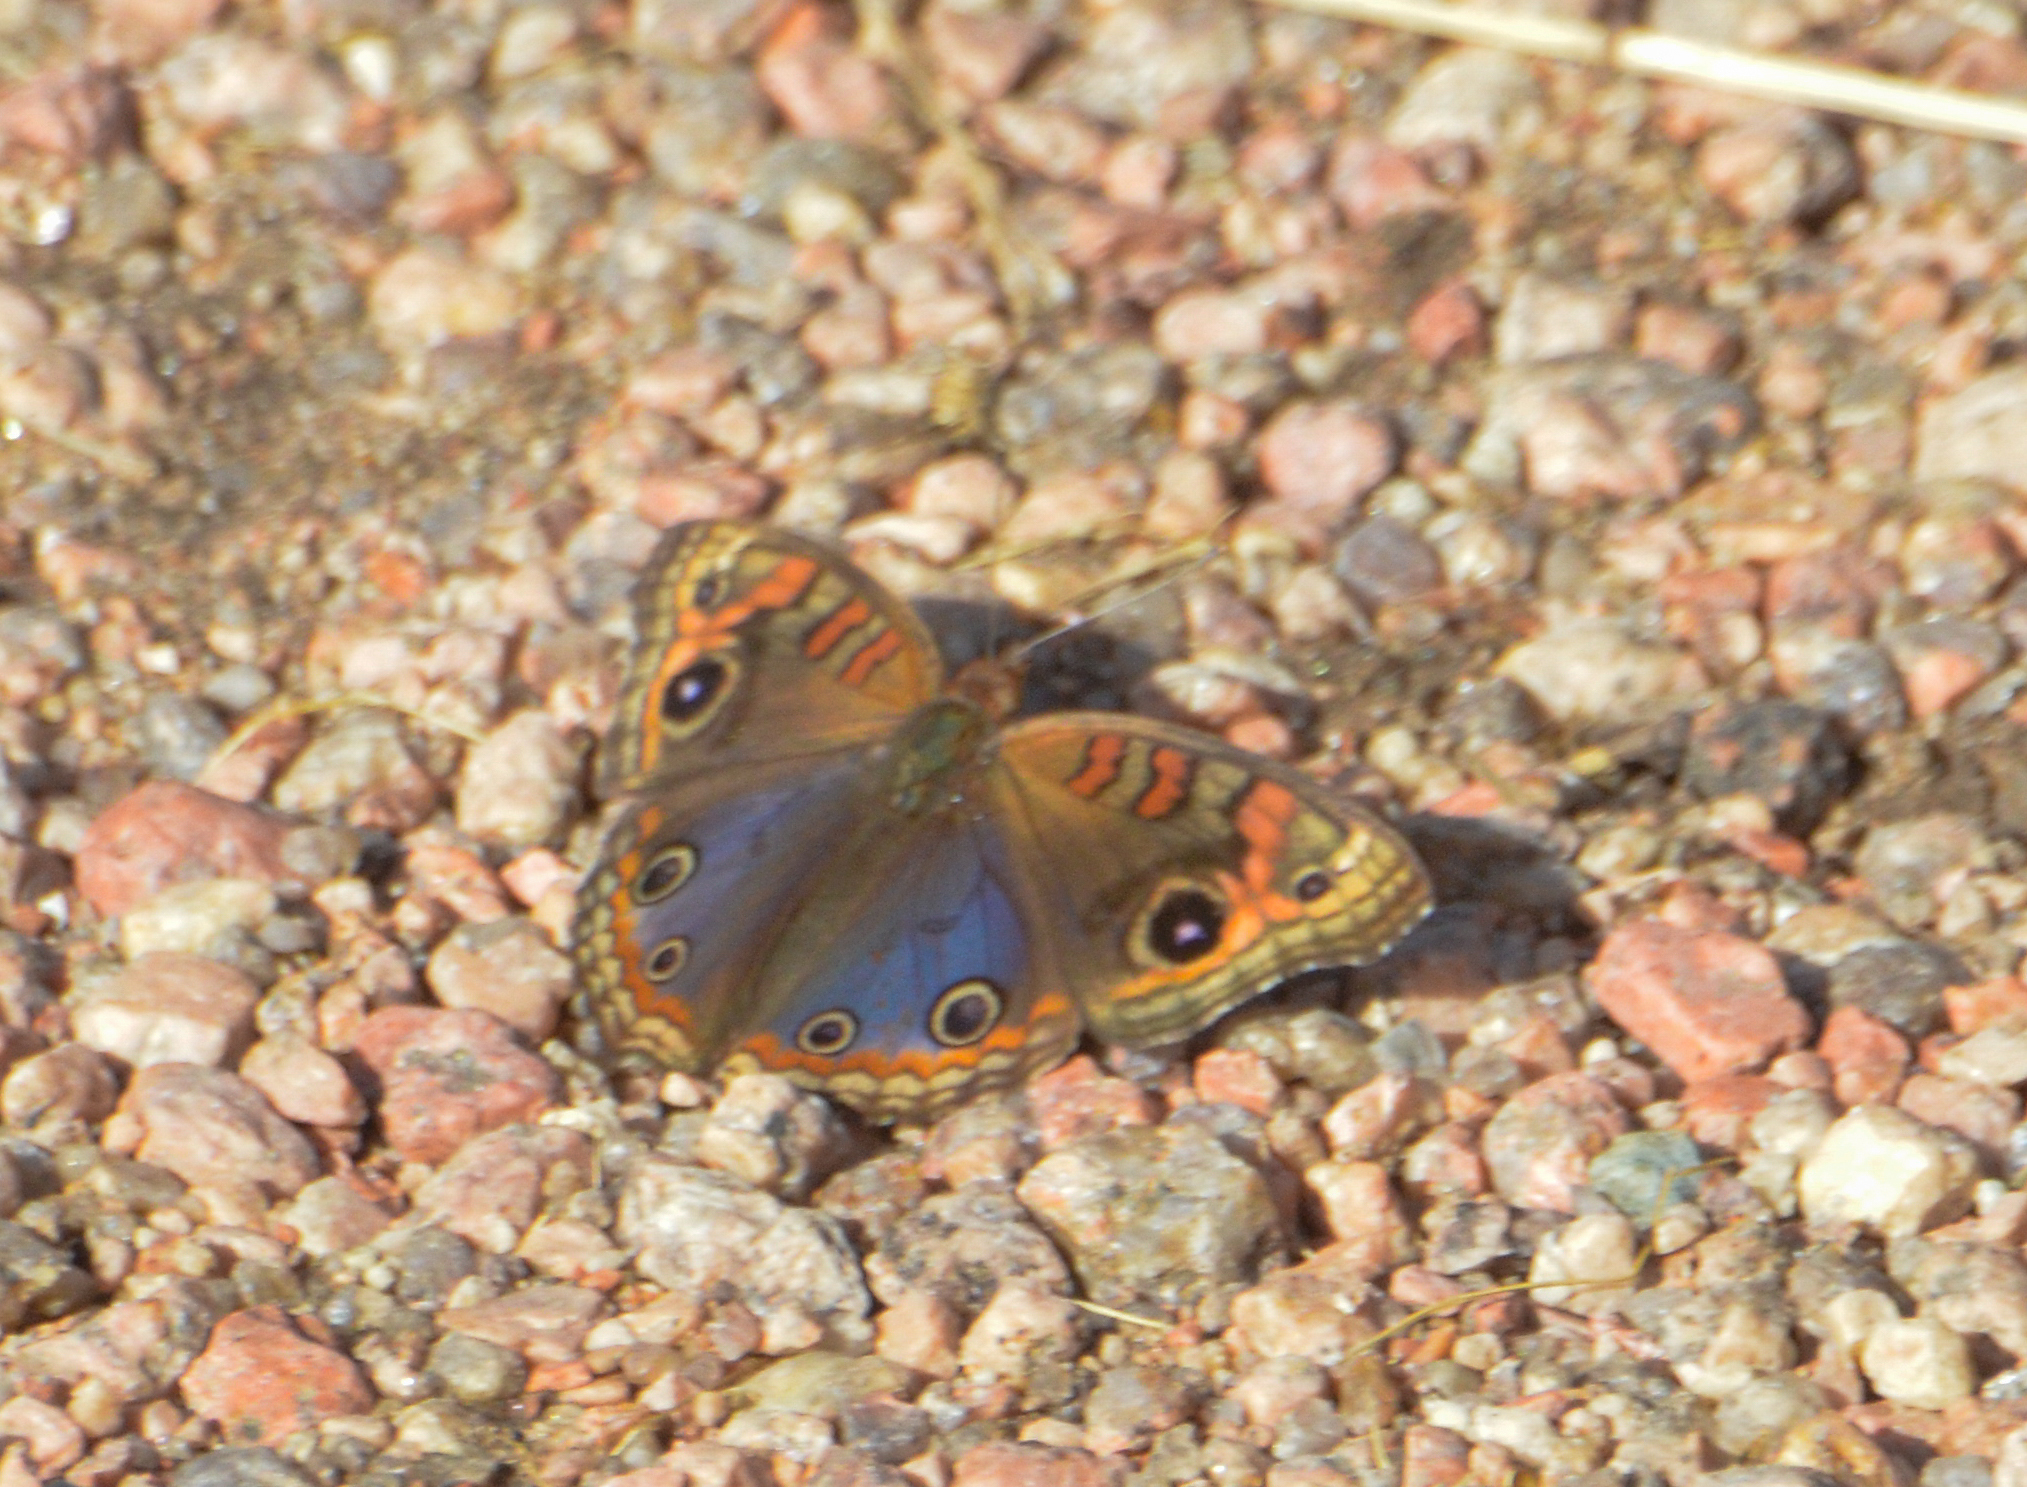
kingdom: Animalia
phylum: Arthropoda
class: Insecta
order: Lepidoptera
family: Nymphalidae
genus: Junonia
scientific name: Junonia lavinia
